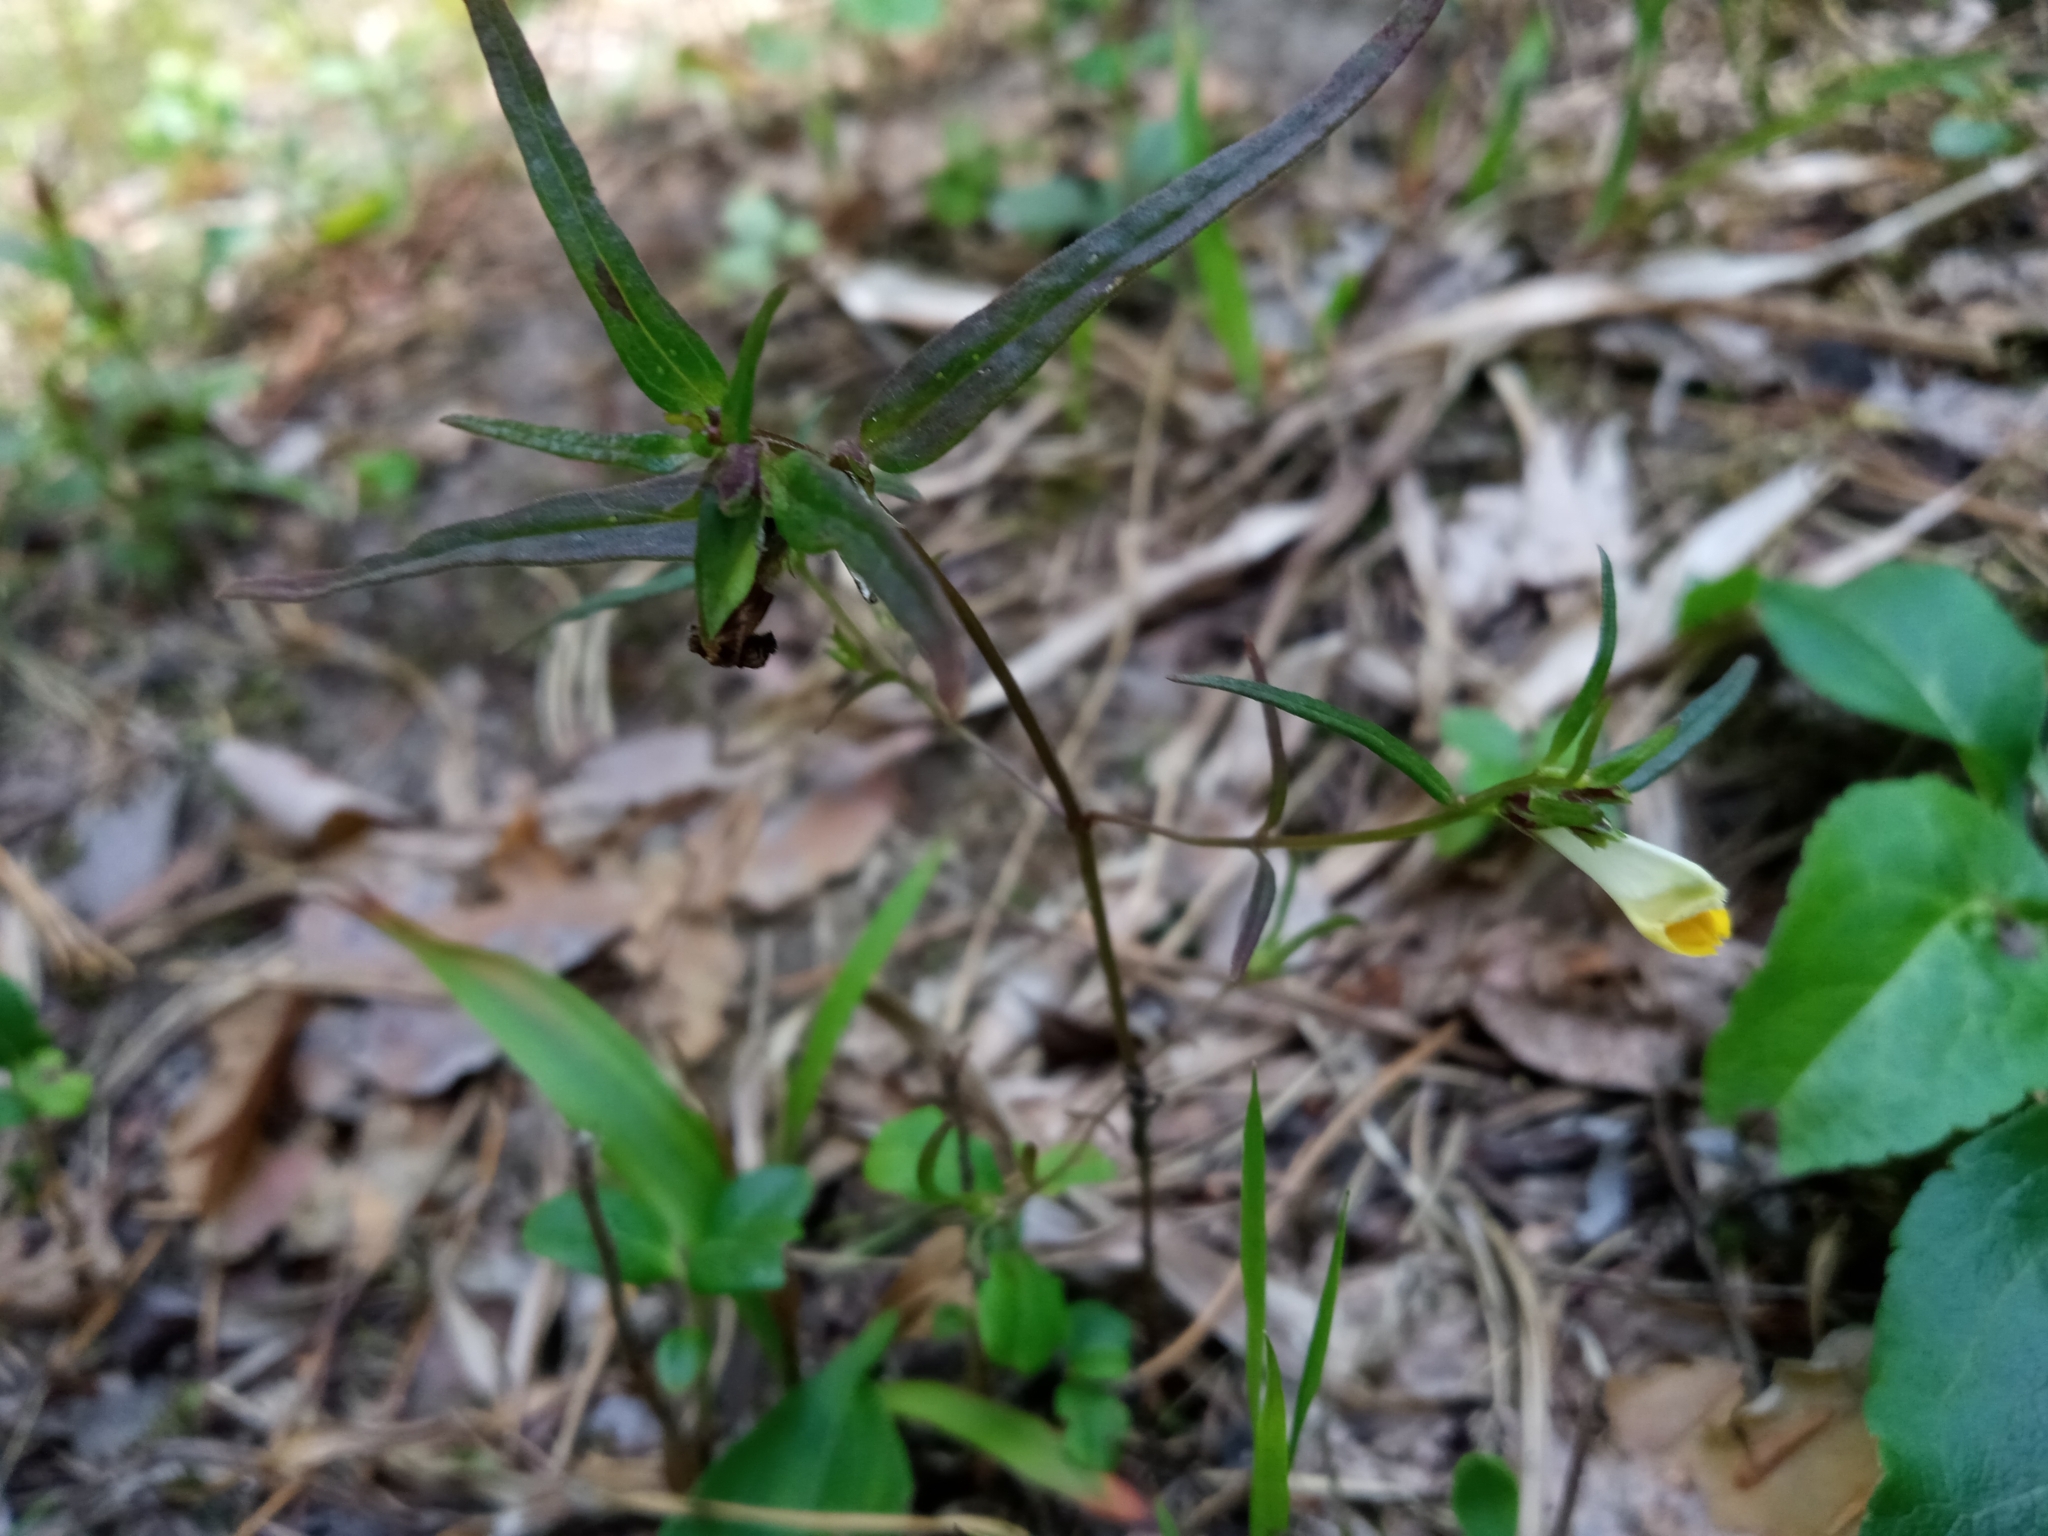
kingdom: Plantae
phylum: Tracheophyta
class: Magnoliopsida
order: Lamiales
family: Orobanchaceae
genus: Melampyrum
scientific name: Melampyrum pratense
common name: Common cow-wheat
